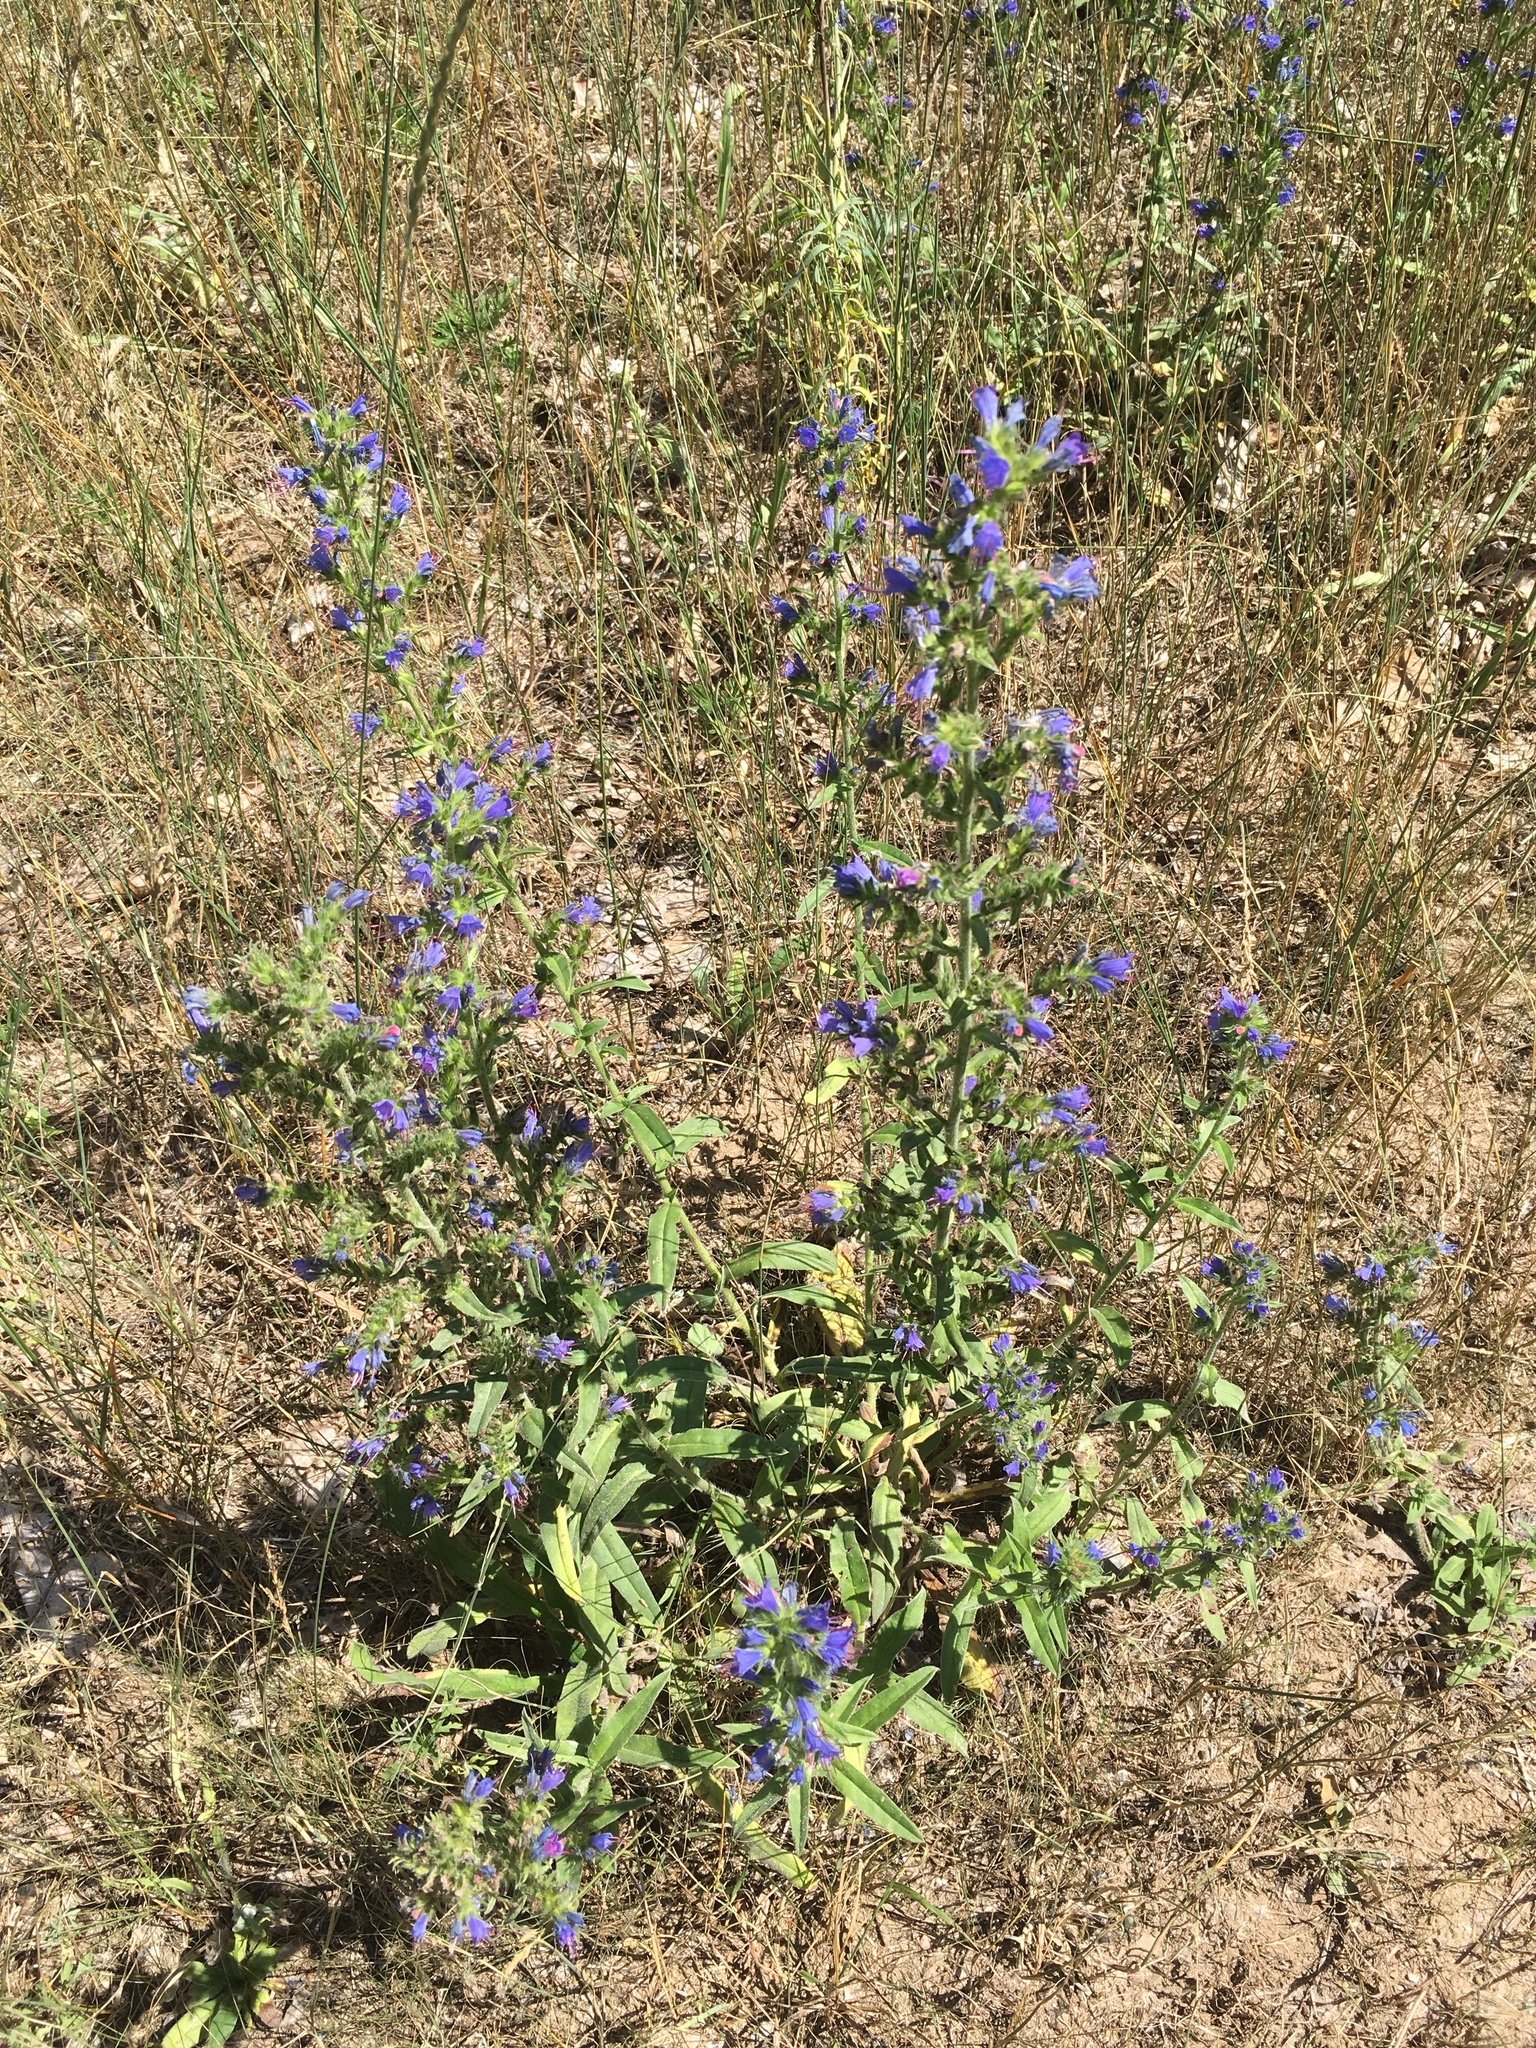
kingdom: Plantae
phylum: Tracheophyta
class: Magnoliopsida
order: Boraginales
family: Boraginaceae
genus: Echium
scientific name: Echium vulgare
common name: Common viper's bugloss
